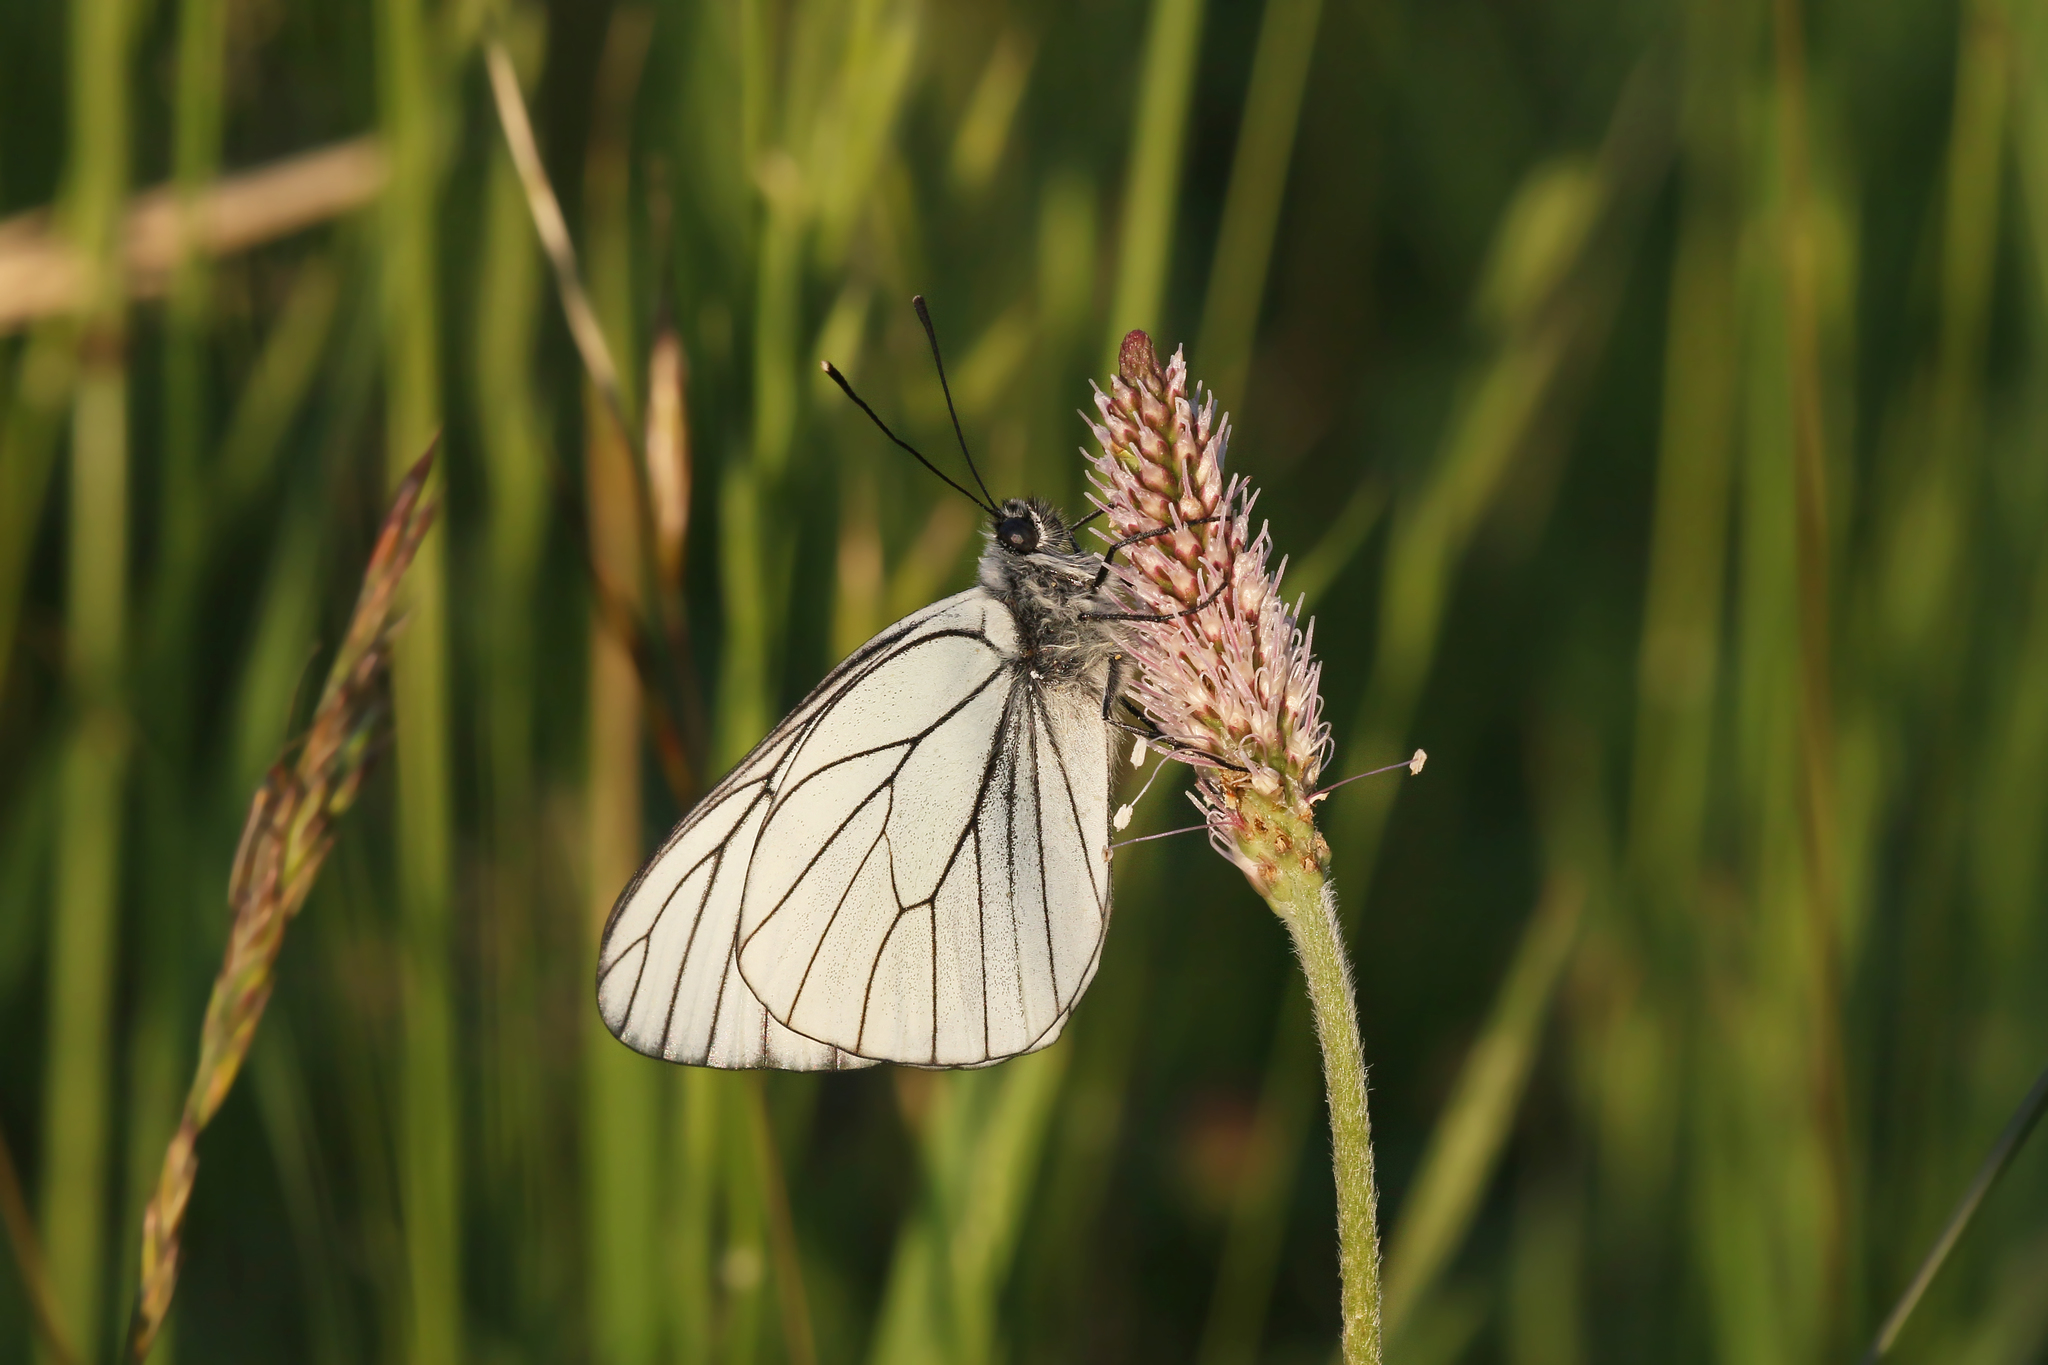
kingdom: Animalia
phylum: Arthropoda
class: Insecta
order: Lepidoptera
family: Pieridae
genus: Aporia
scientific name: Aporia crataegi
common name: Black-veined white
